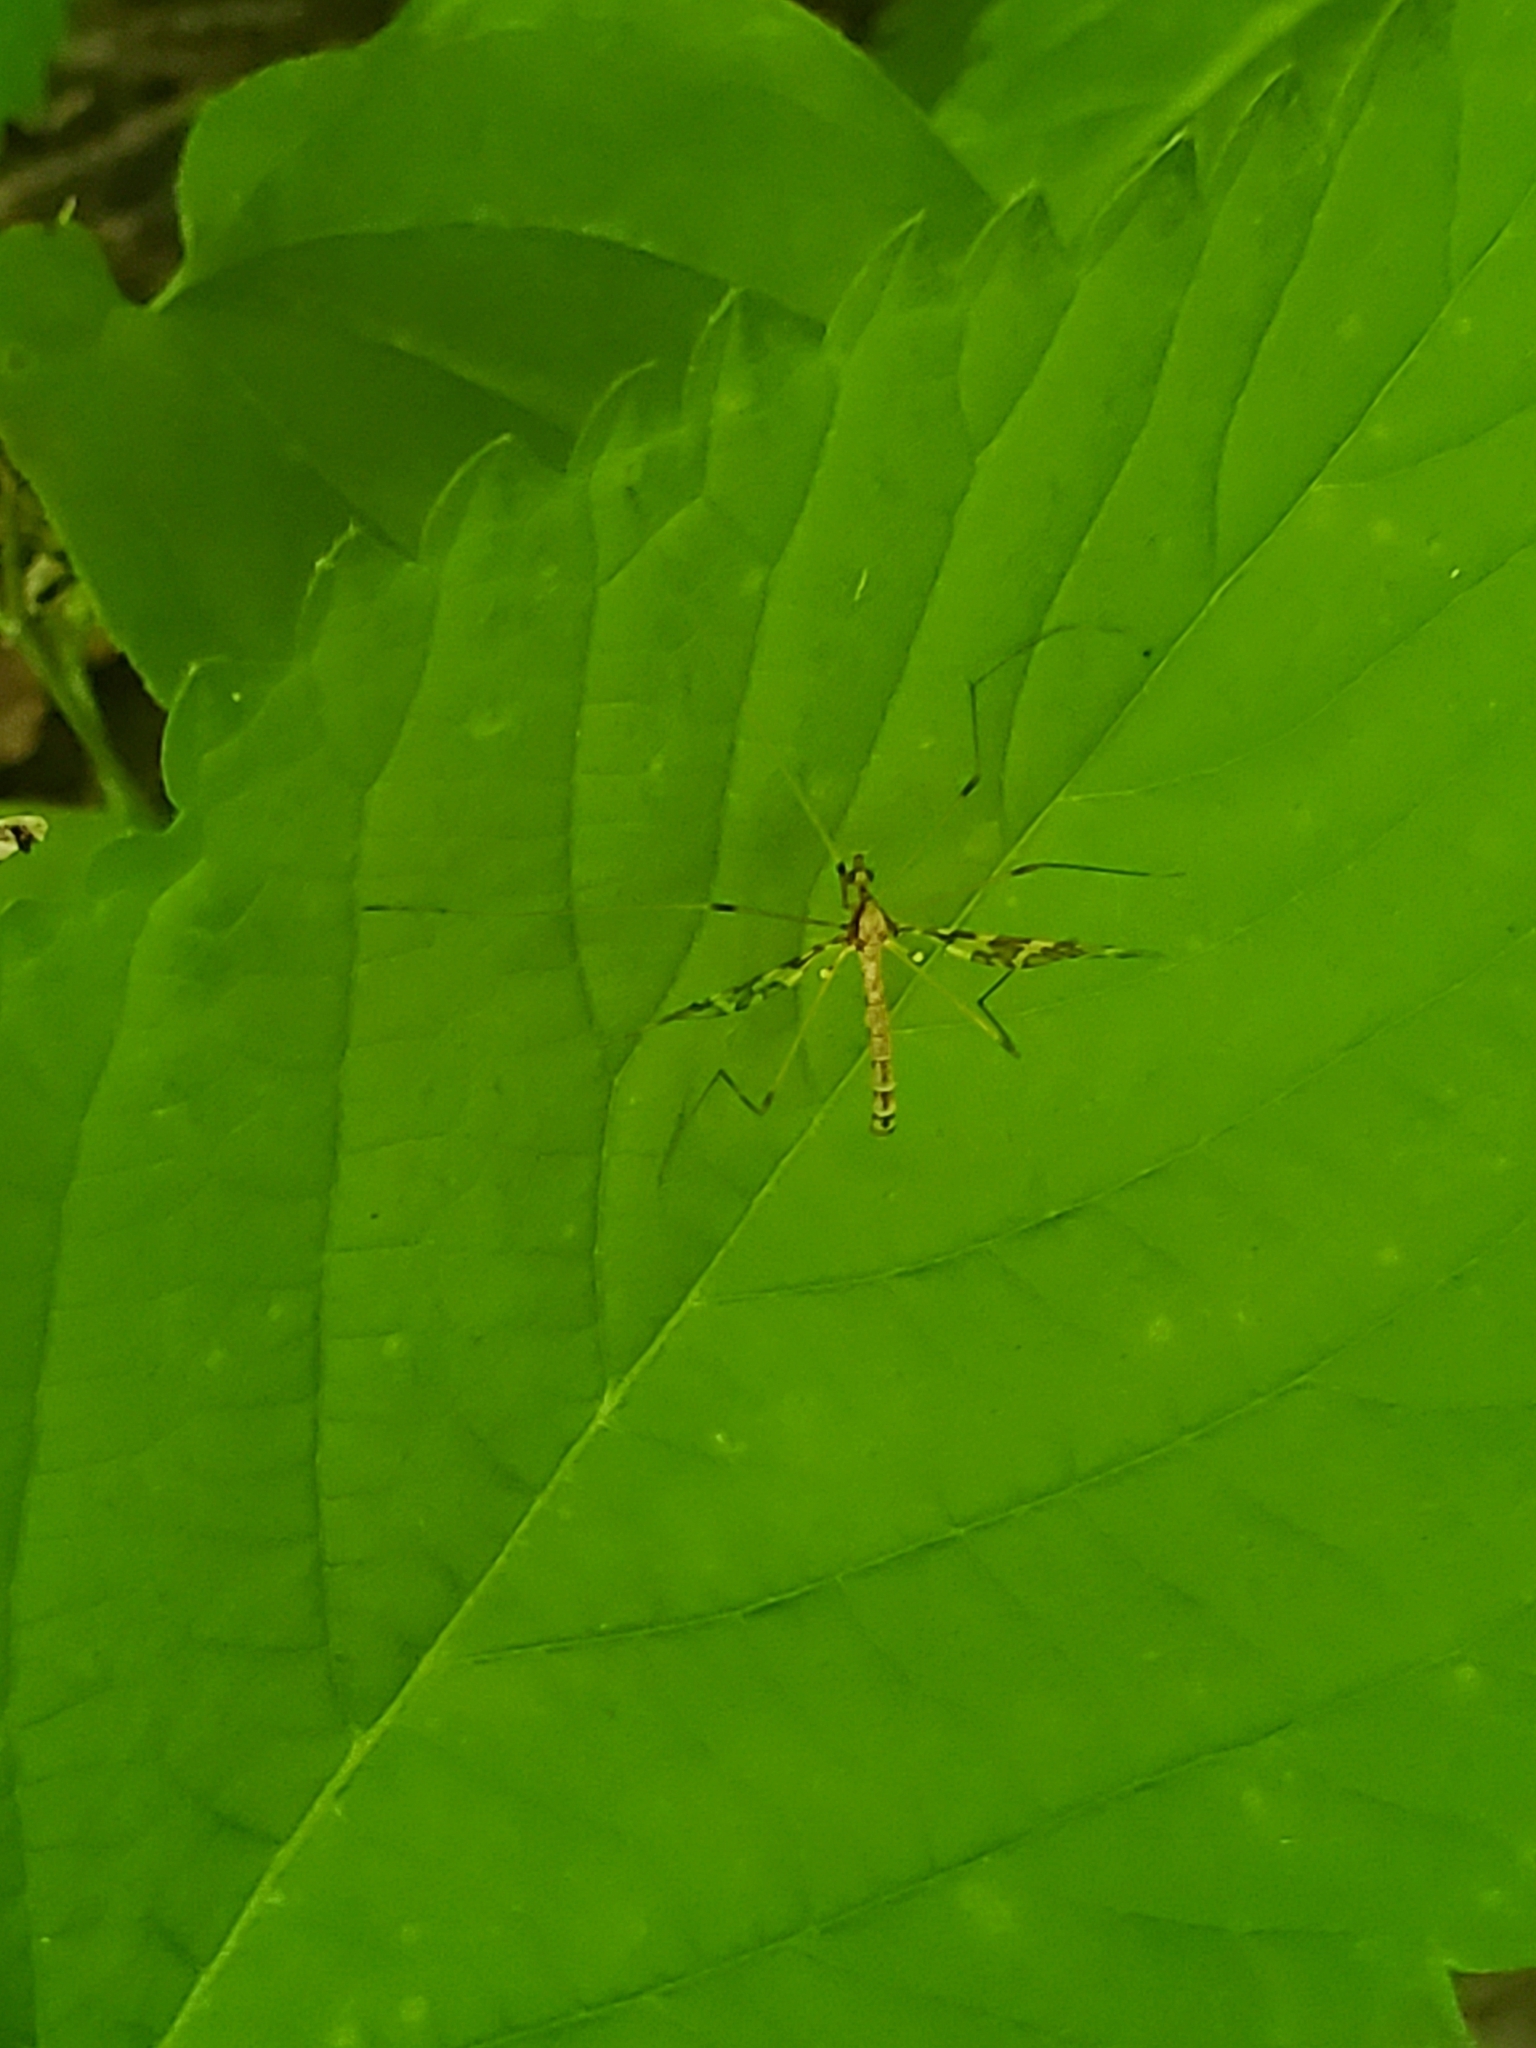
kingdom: Animalia
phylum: Arthropoda
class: Insecta
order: Diptera
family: Limoniidae
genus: Epiphragma
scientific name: Epiphragma fasciapenne
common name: Band-winged crane fly
